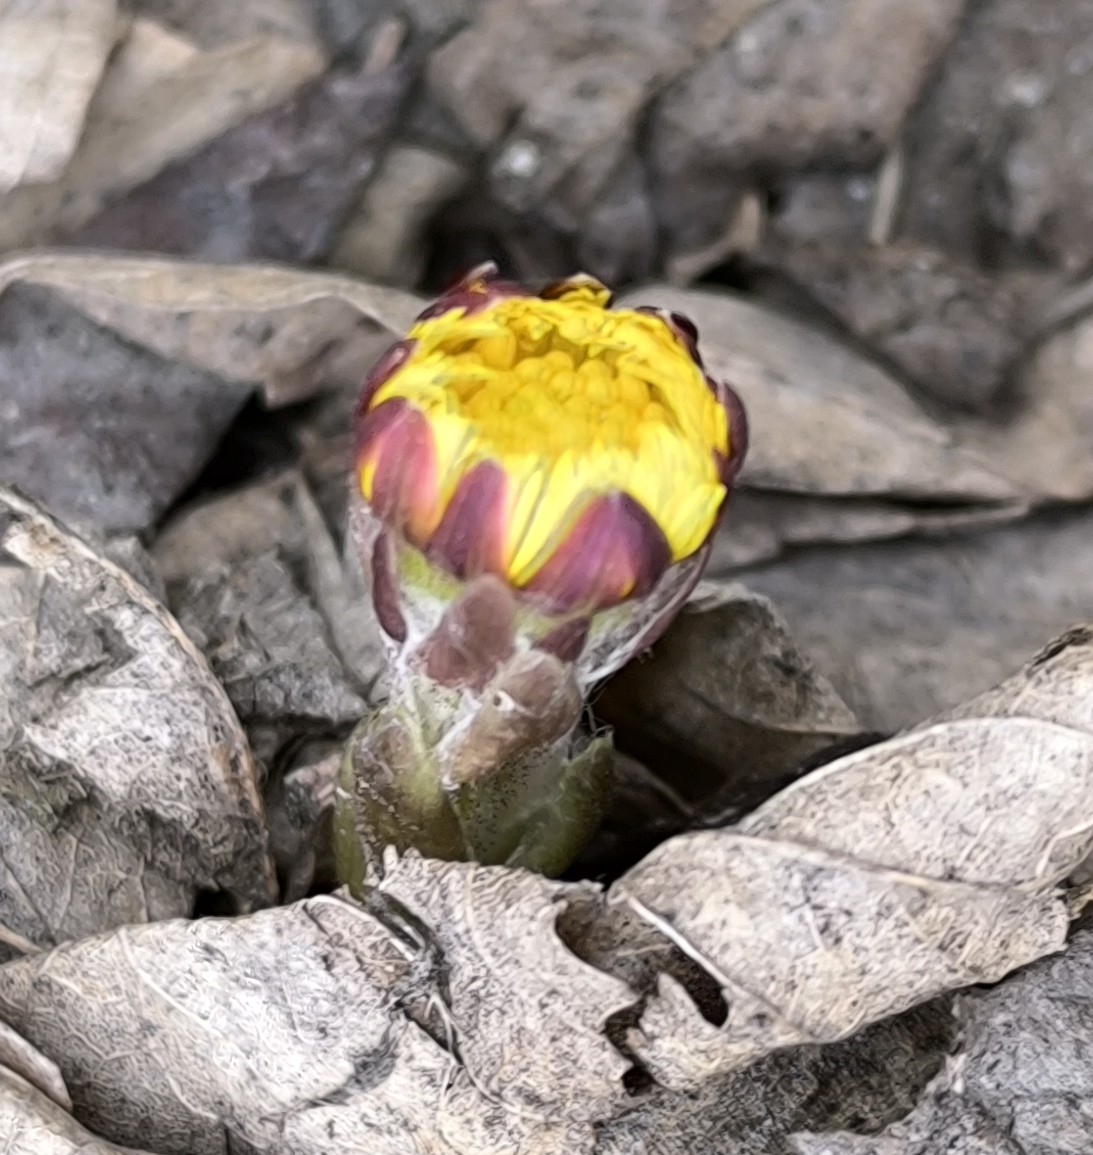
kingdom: Plantae
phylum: Tracheophyta
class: Magnoliopsida
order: Asterales
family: Asteraceae
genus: Tussilago
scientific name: Tussilago farfara
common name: Coltsfoot
